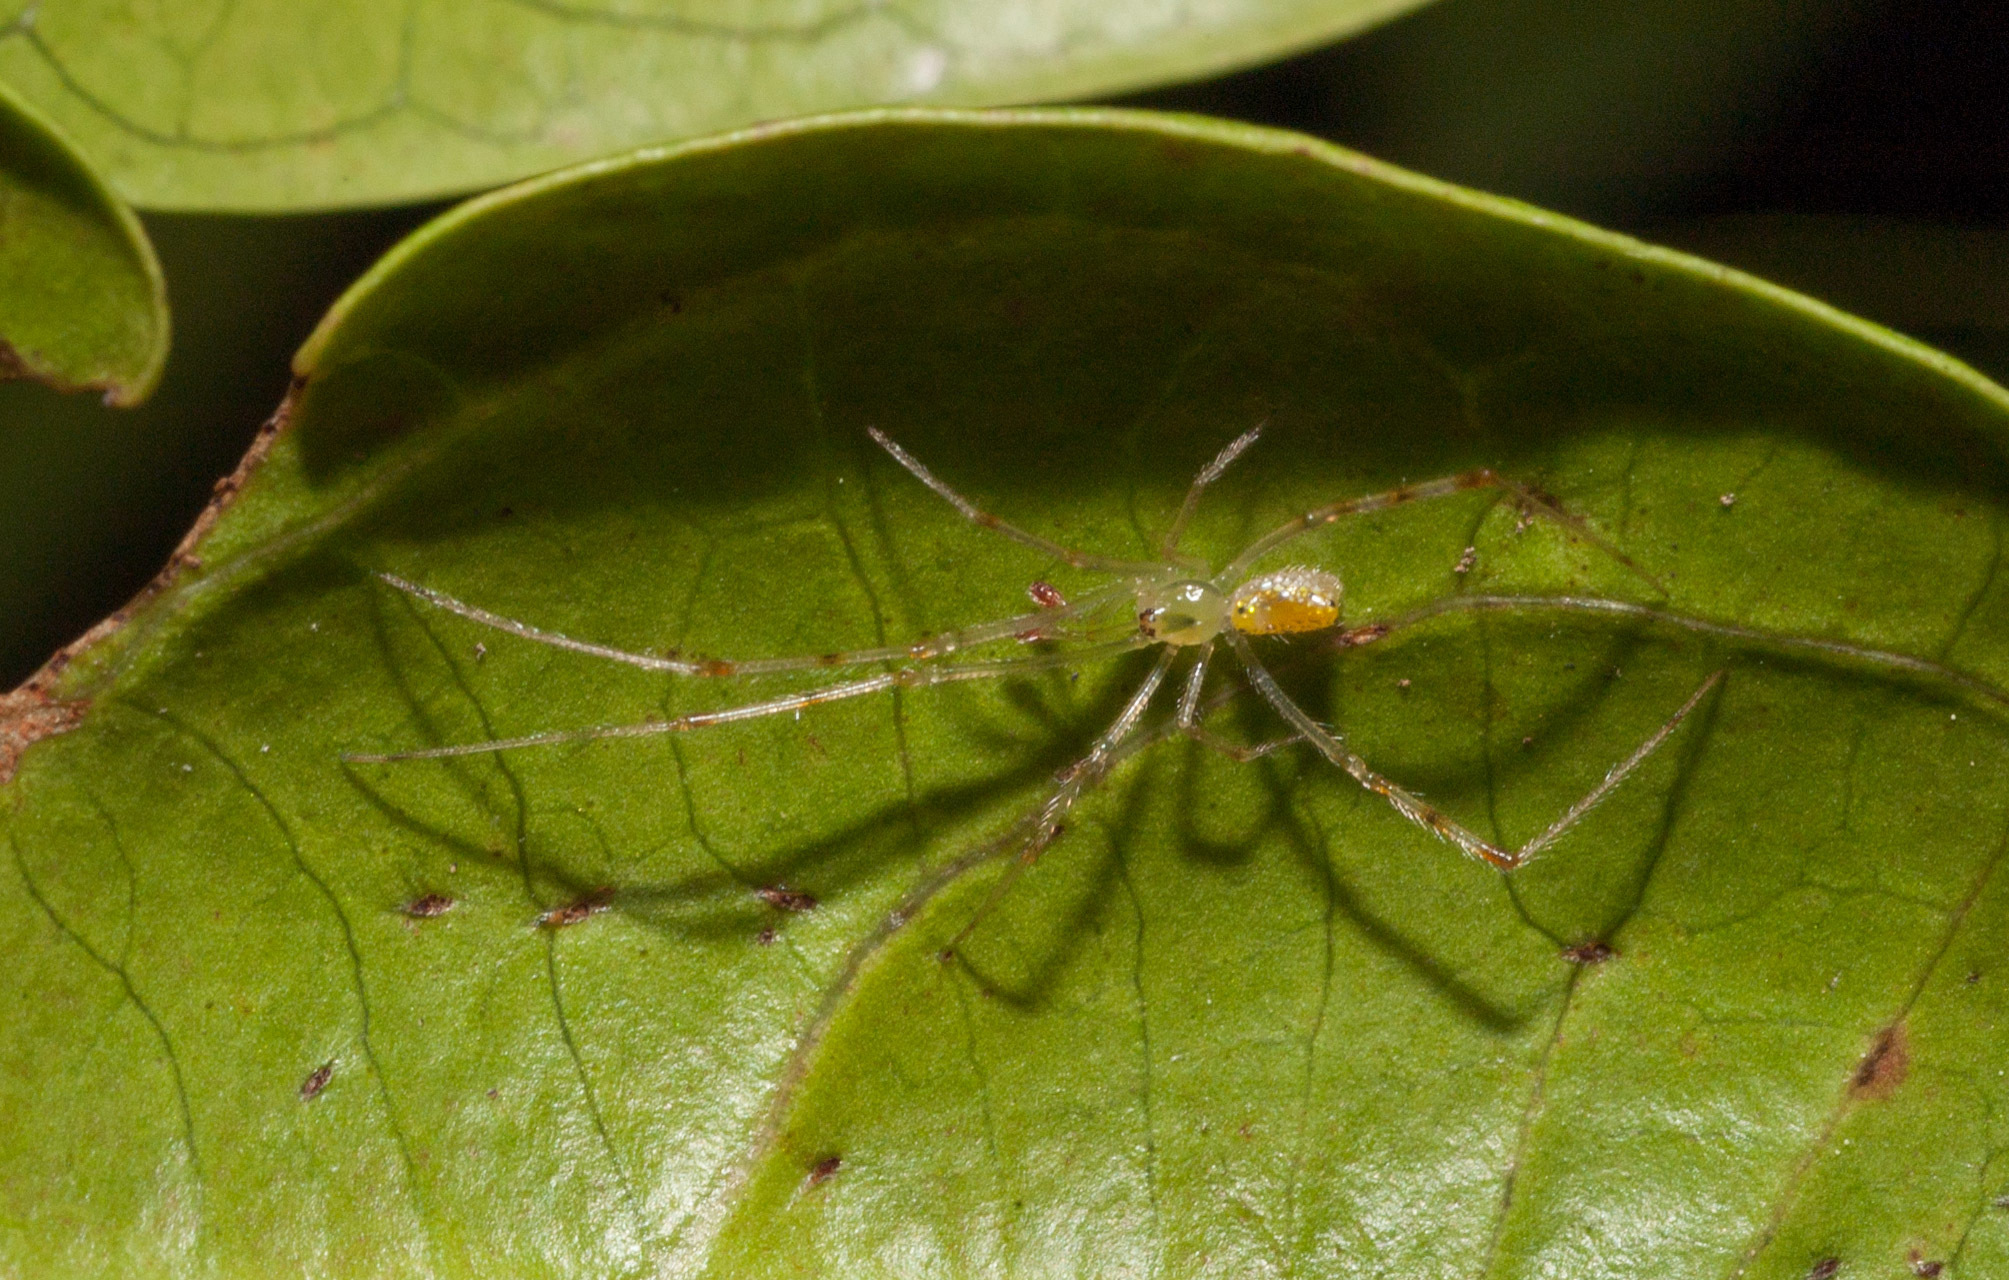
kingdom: Animalia
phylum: Arthropoda
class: Arachnida
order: Araneae
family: Theridiidae
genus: Thwaitesia
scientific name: Thwaitesia nigronodosa
